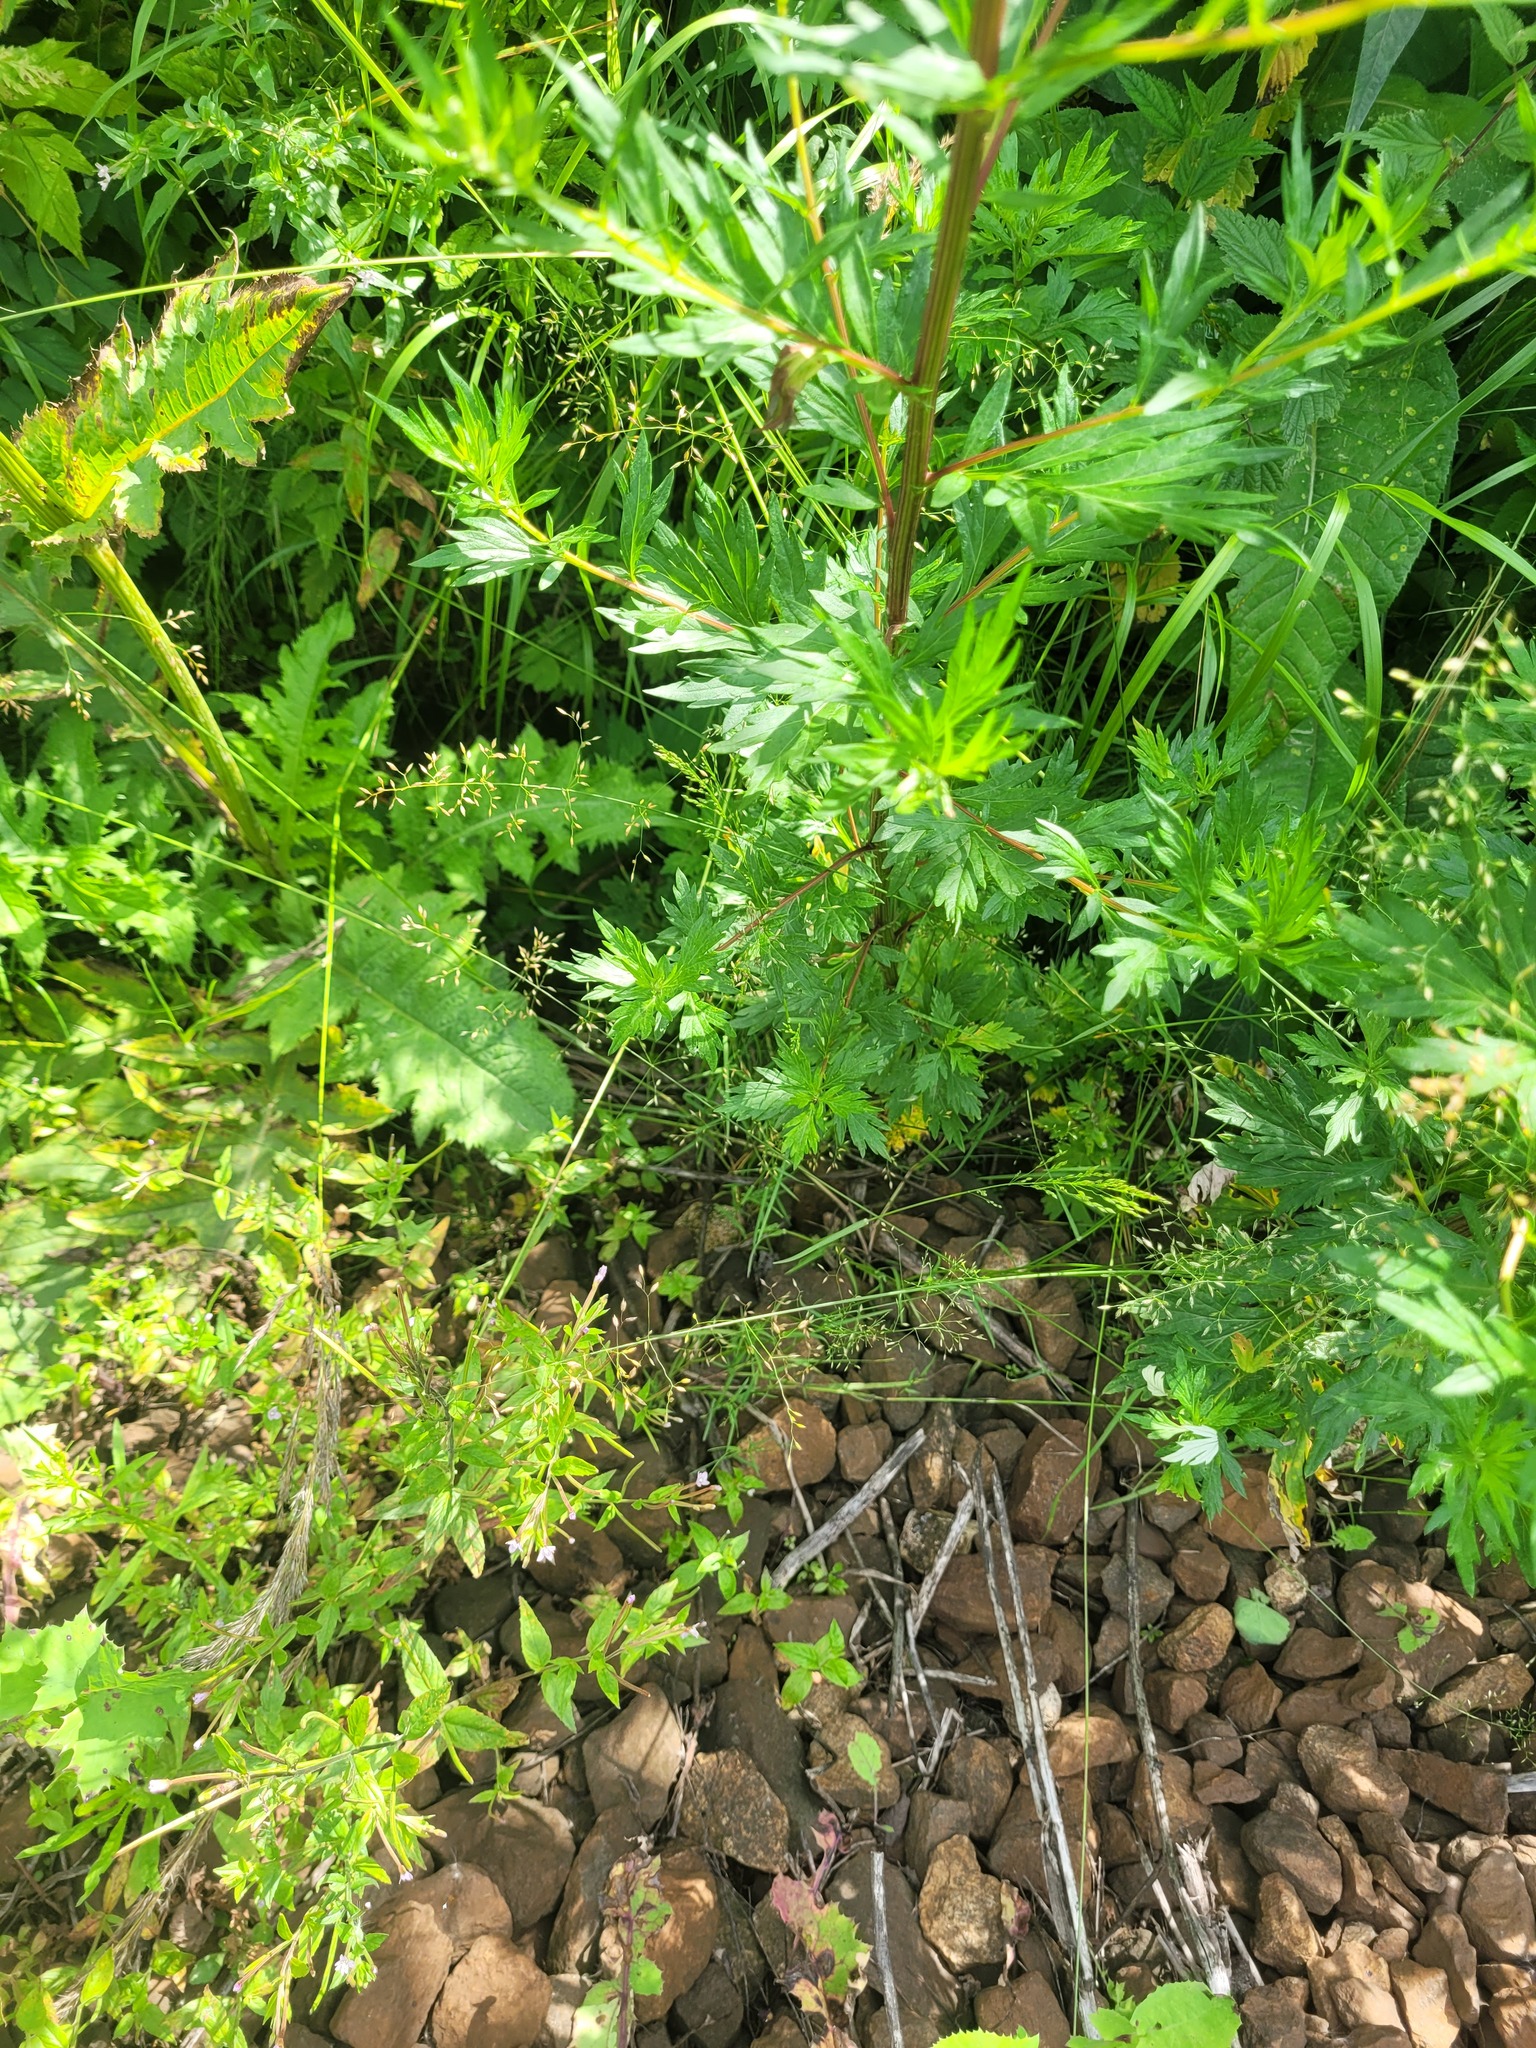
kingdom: Plantae
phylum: Tracheophyta
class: Liliopsida
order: Poales
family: Poaceae
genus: Poa
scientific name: Poa palustris
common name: Swamp meadow-grass
